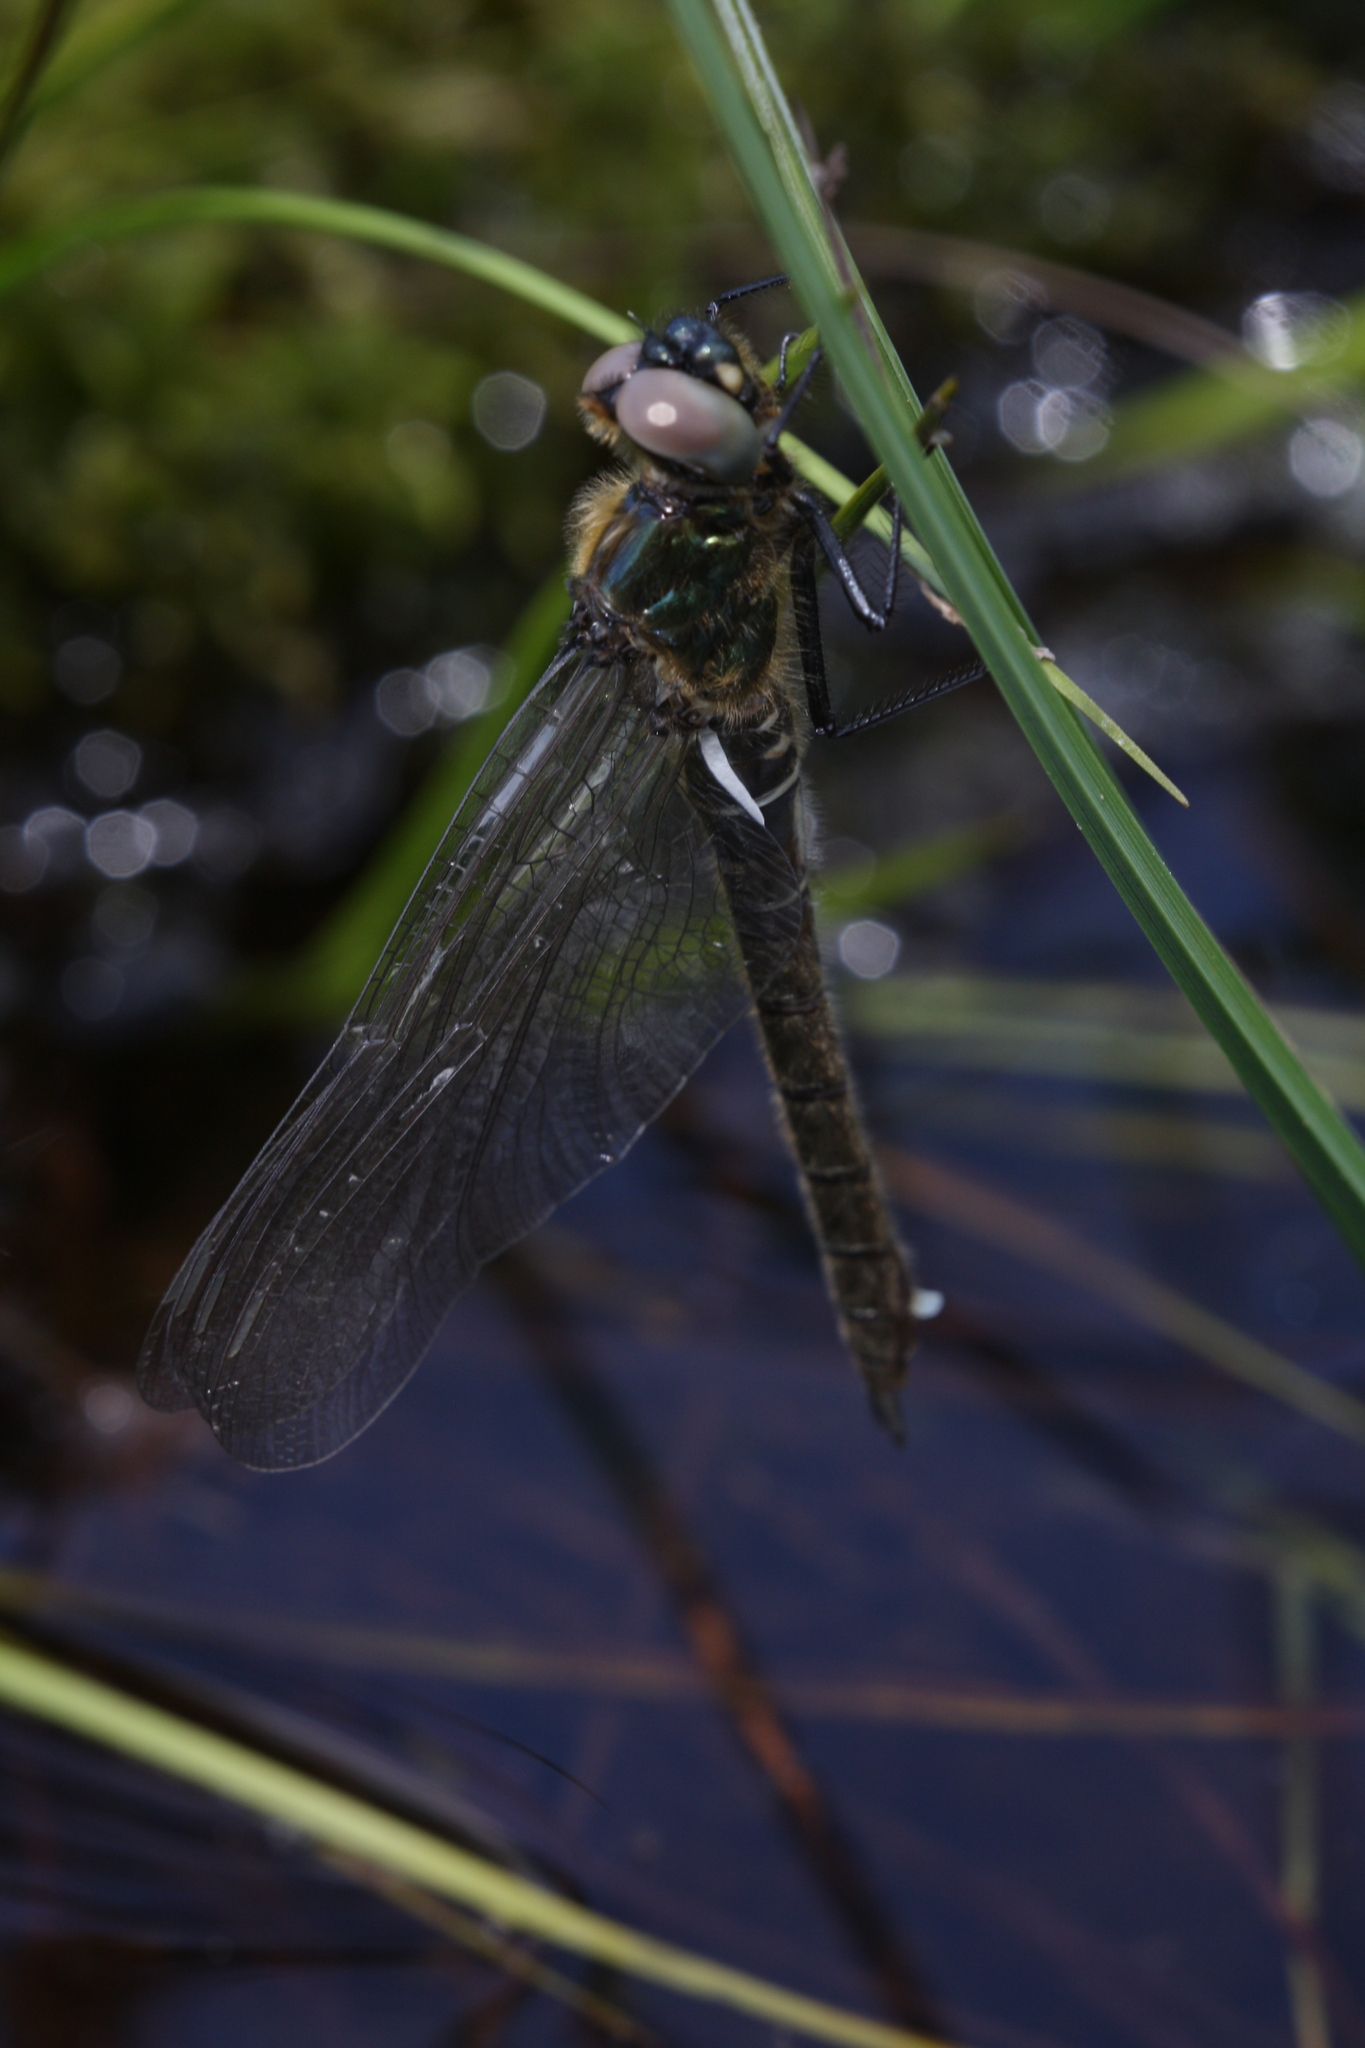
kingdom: Animalia
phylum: Arthropoda
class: Insecta
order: Odonata
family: Corduliidae
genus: Somatochlora
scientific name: Somatochlora alpestris
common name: Alpine emerald
